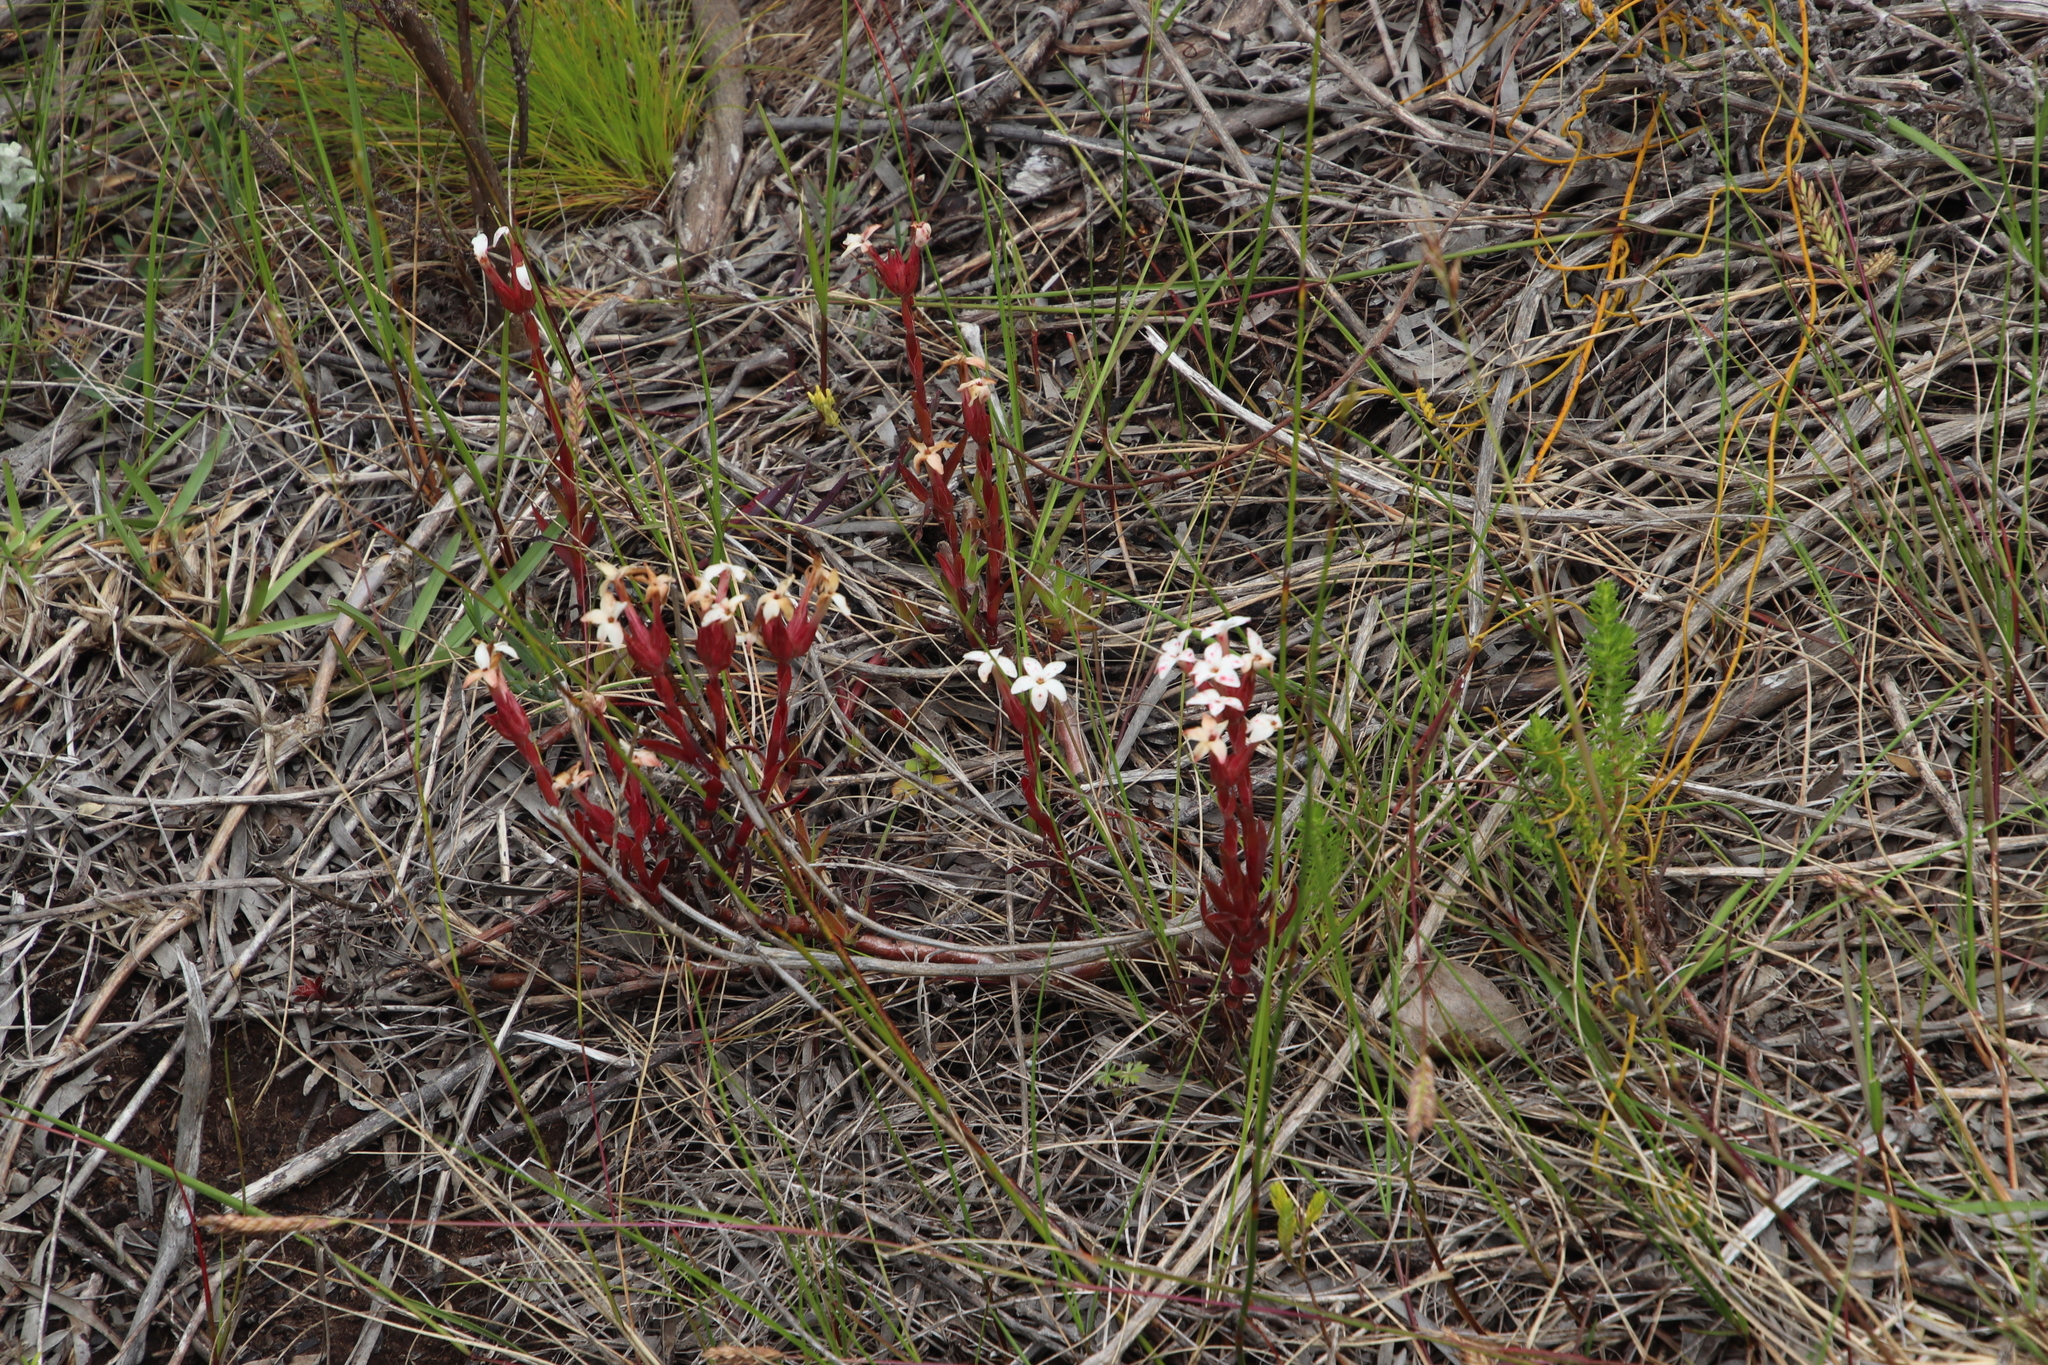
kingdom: Plantae
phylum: Tracheophyta
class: Magnoliopsida
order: Saxifragales
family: Crassulaceae
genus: Crassula
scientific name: Crassula fascicularis
